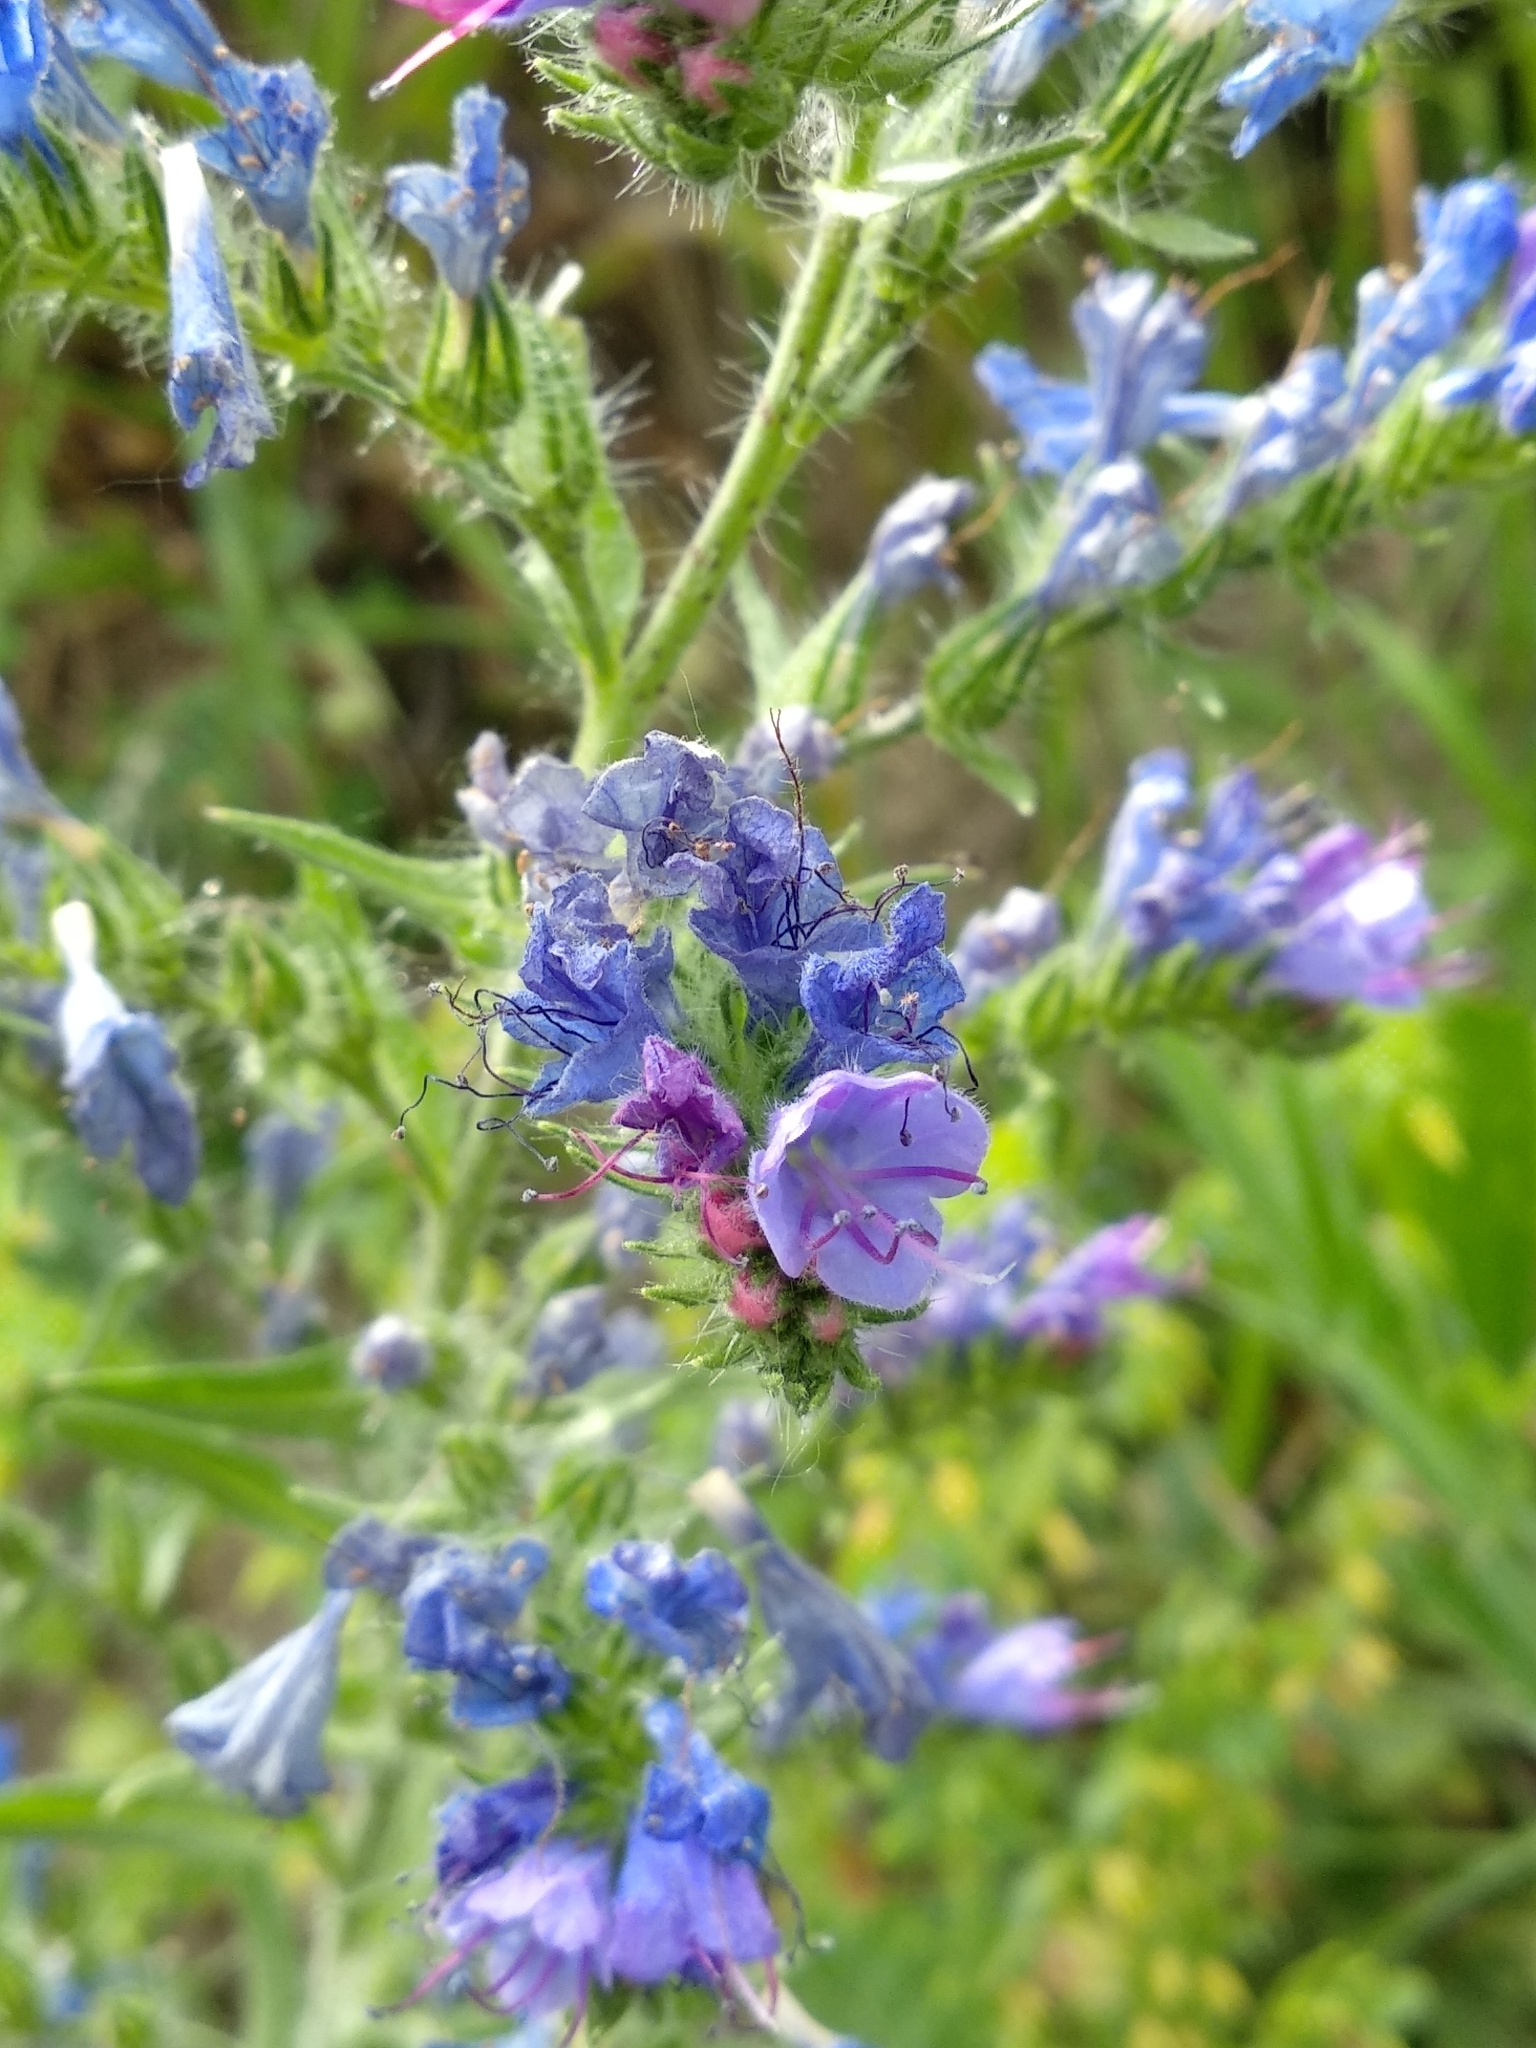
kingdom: Plantae
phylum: Tracheophyta
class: Magnoliopsida
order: Boraginales
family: Boraginaceae
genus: Echium
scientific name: Echium vulgare
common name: Common viper's bugloss
